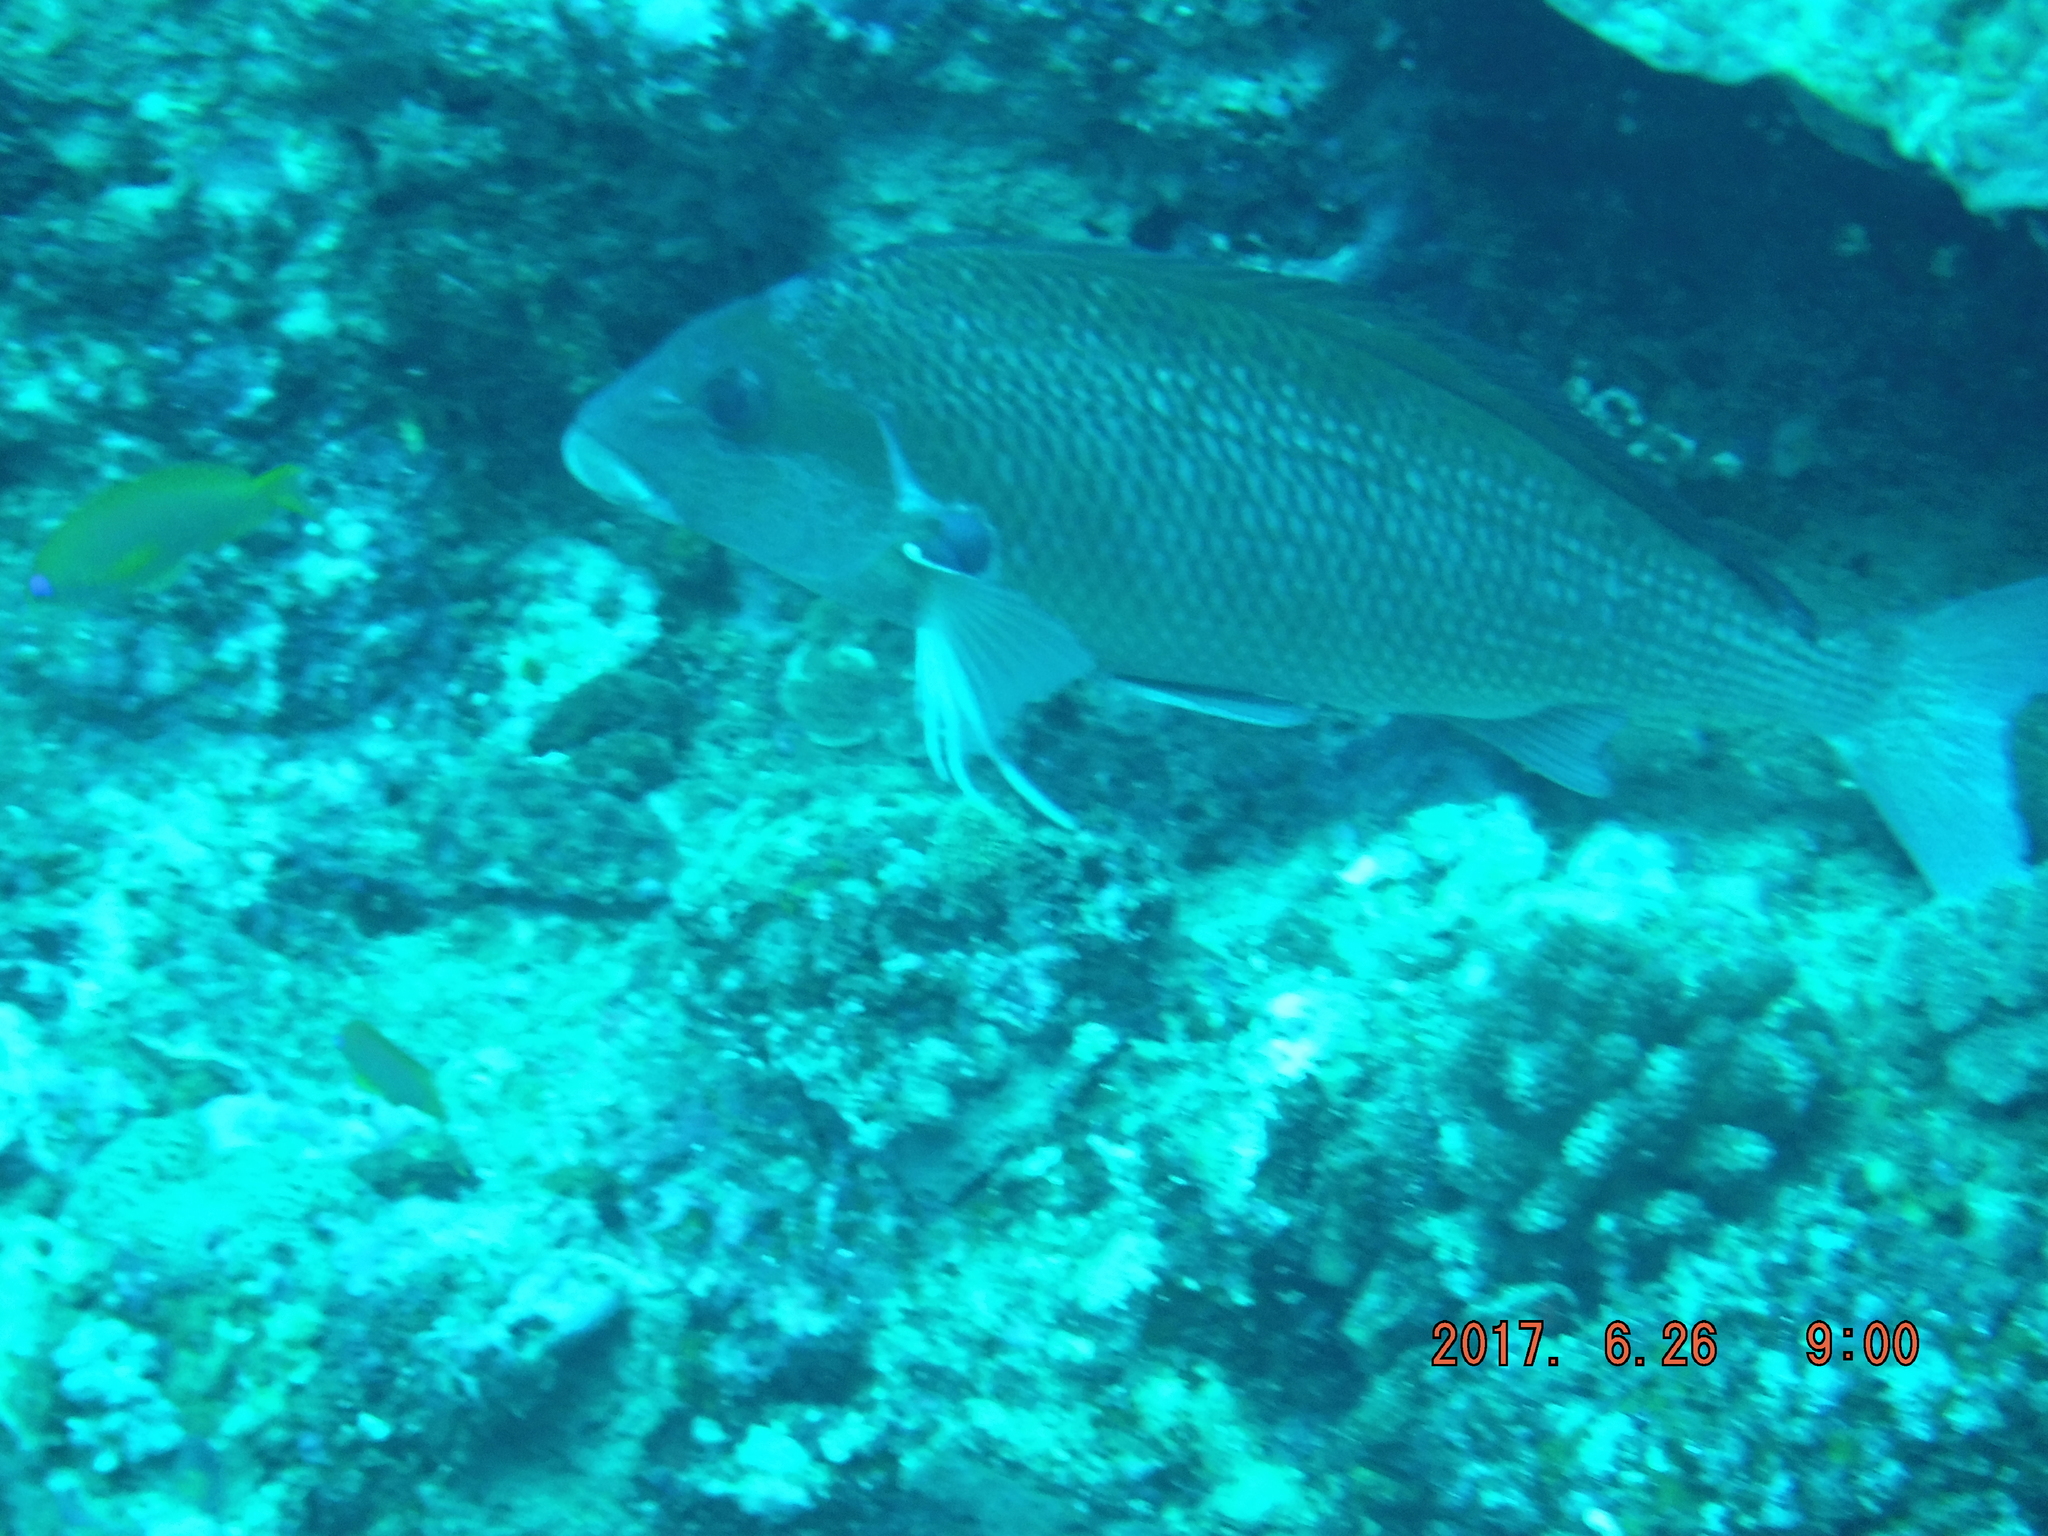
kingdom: Animalia
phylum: Chordata
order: Perciformes
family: Cheilodactylidae
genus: Chirodactylus
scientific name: Chirodactylus jessicalenorum
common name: Natal fingerfin
